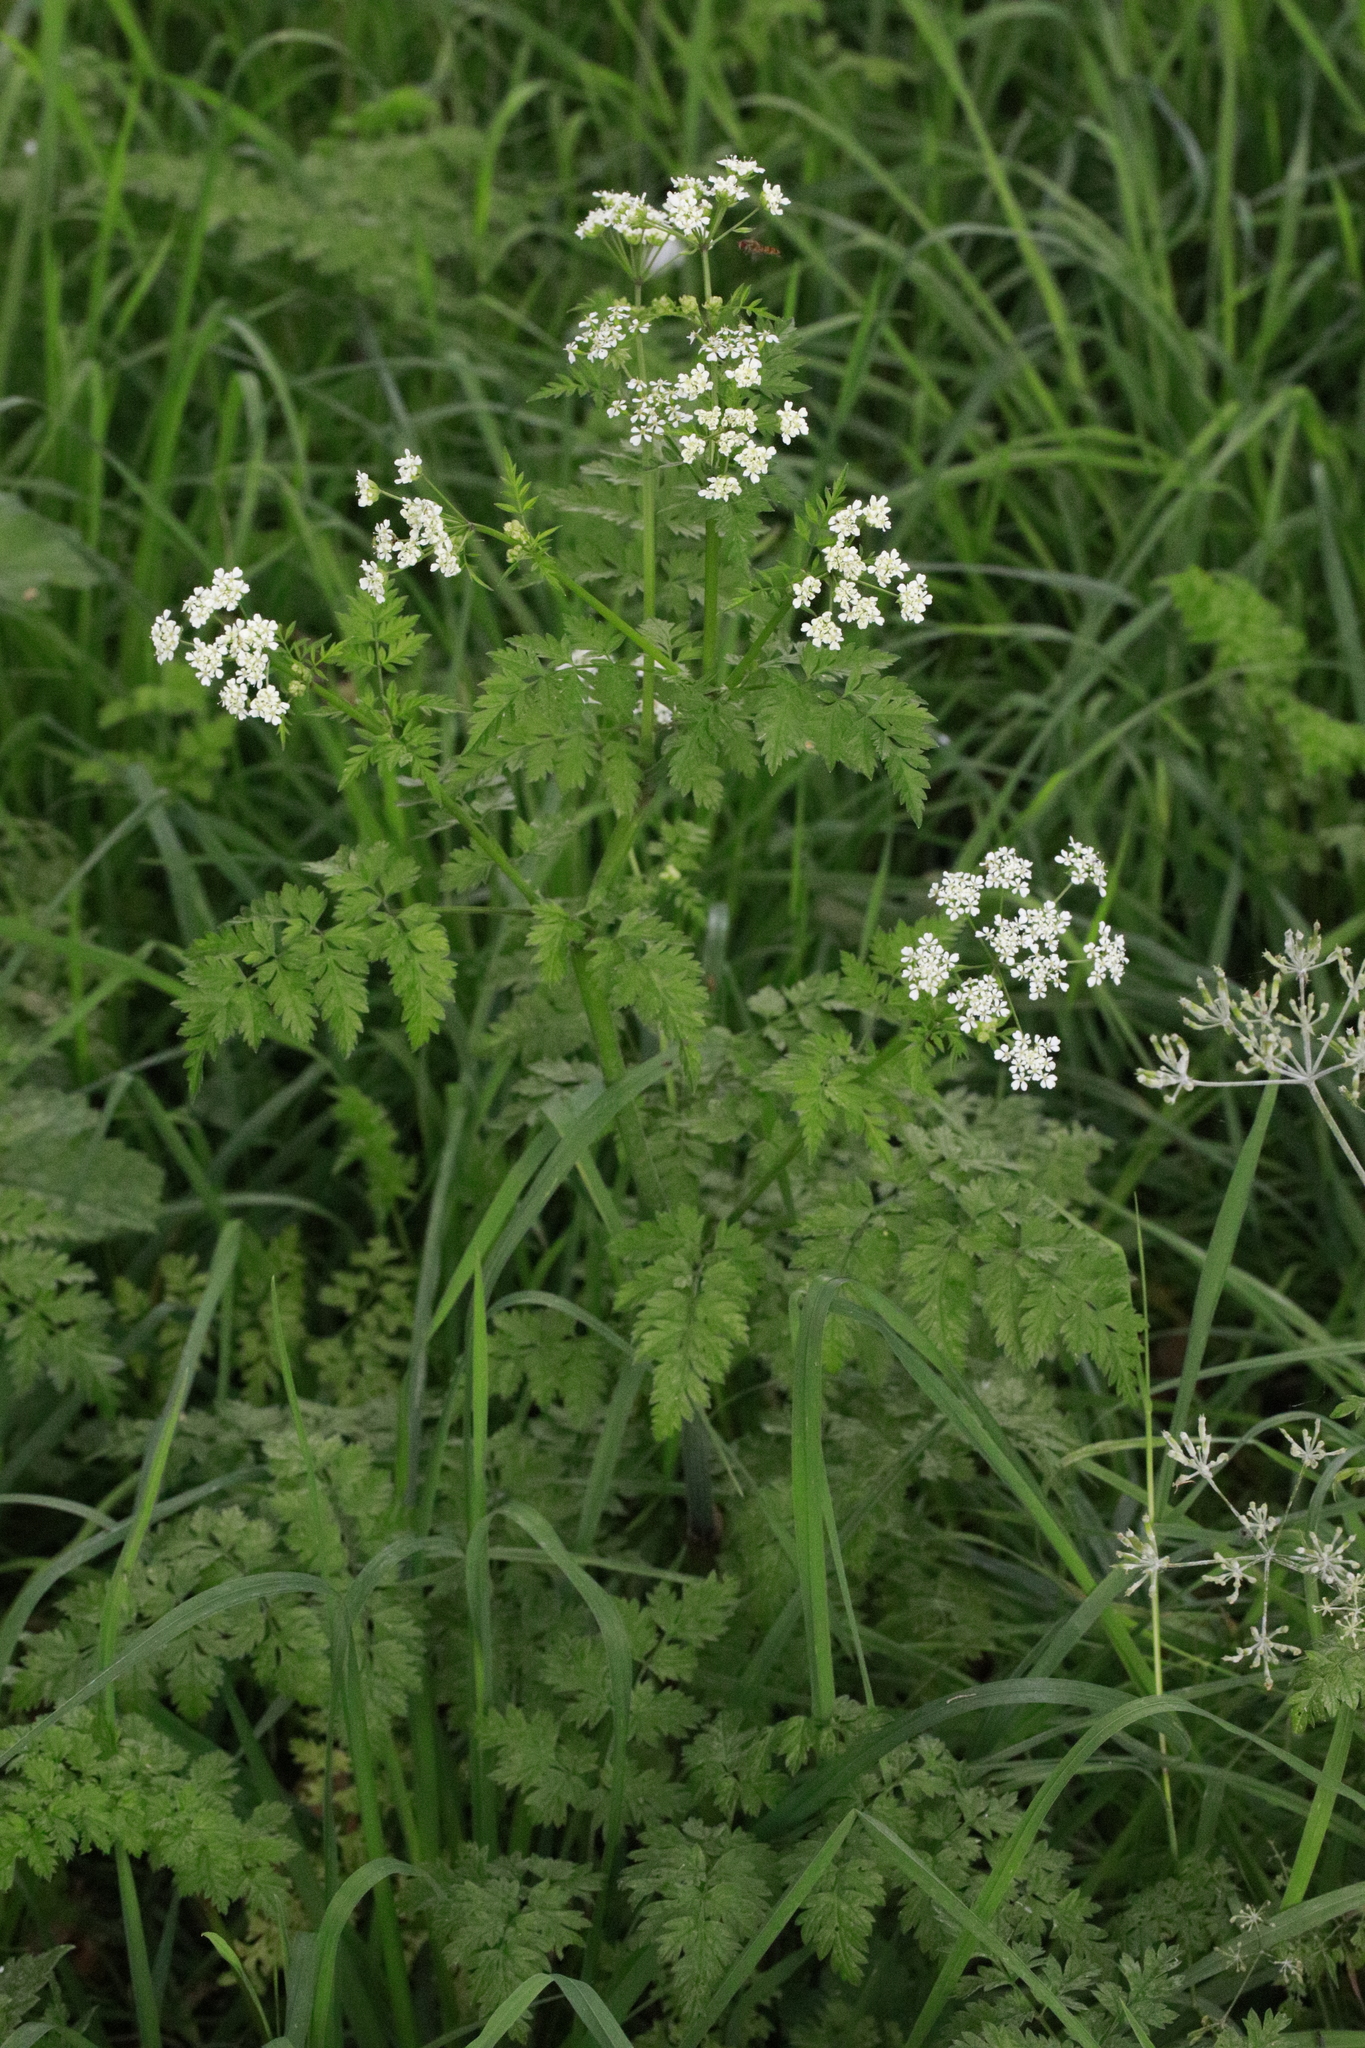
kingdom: Plantae
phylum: Tracheophyta
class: Magnoliopsida
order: Apiales
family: Apiaceae
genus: Anthriscus
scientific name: Anthriscus sylvestris
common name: Cow parsley
